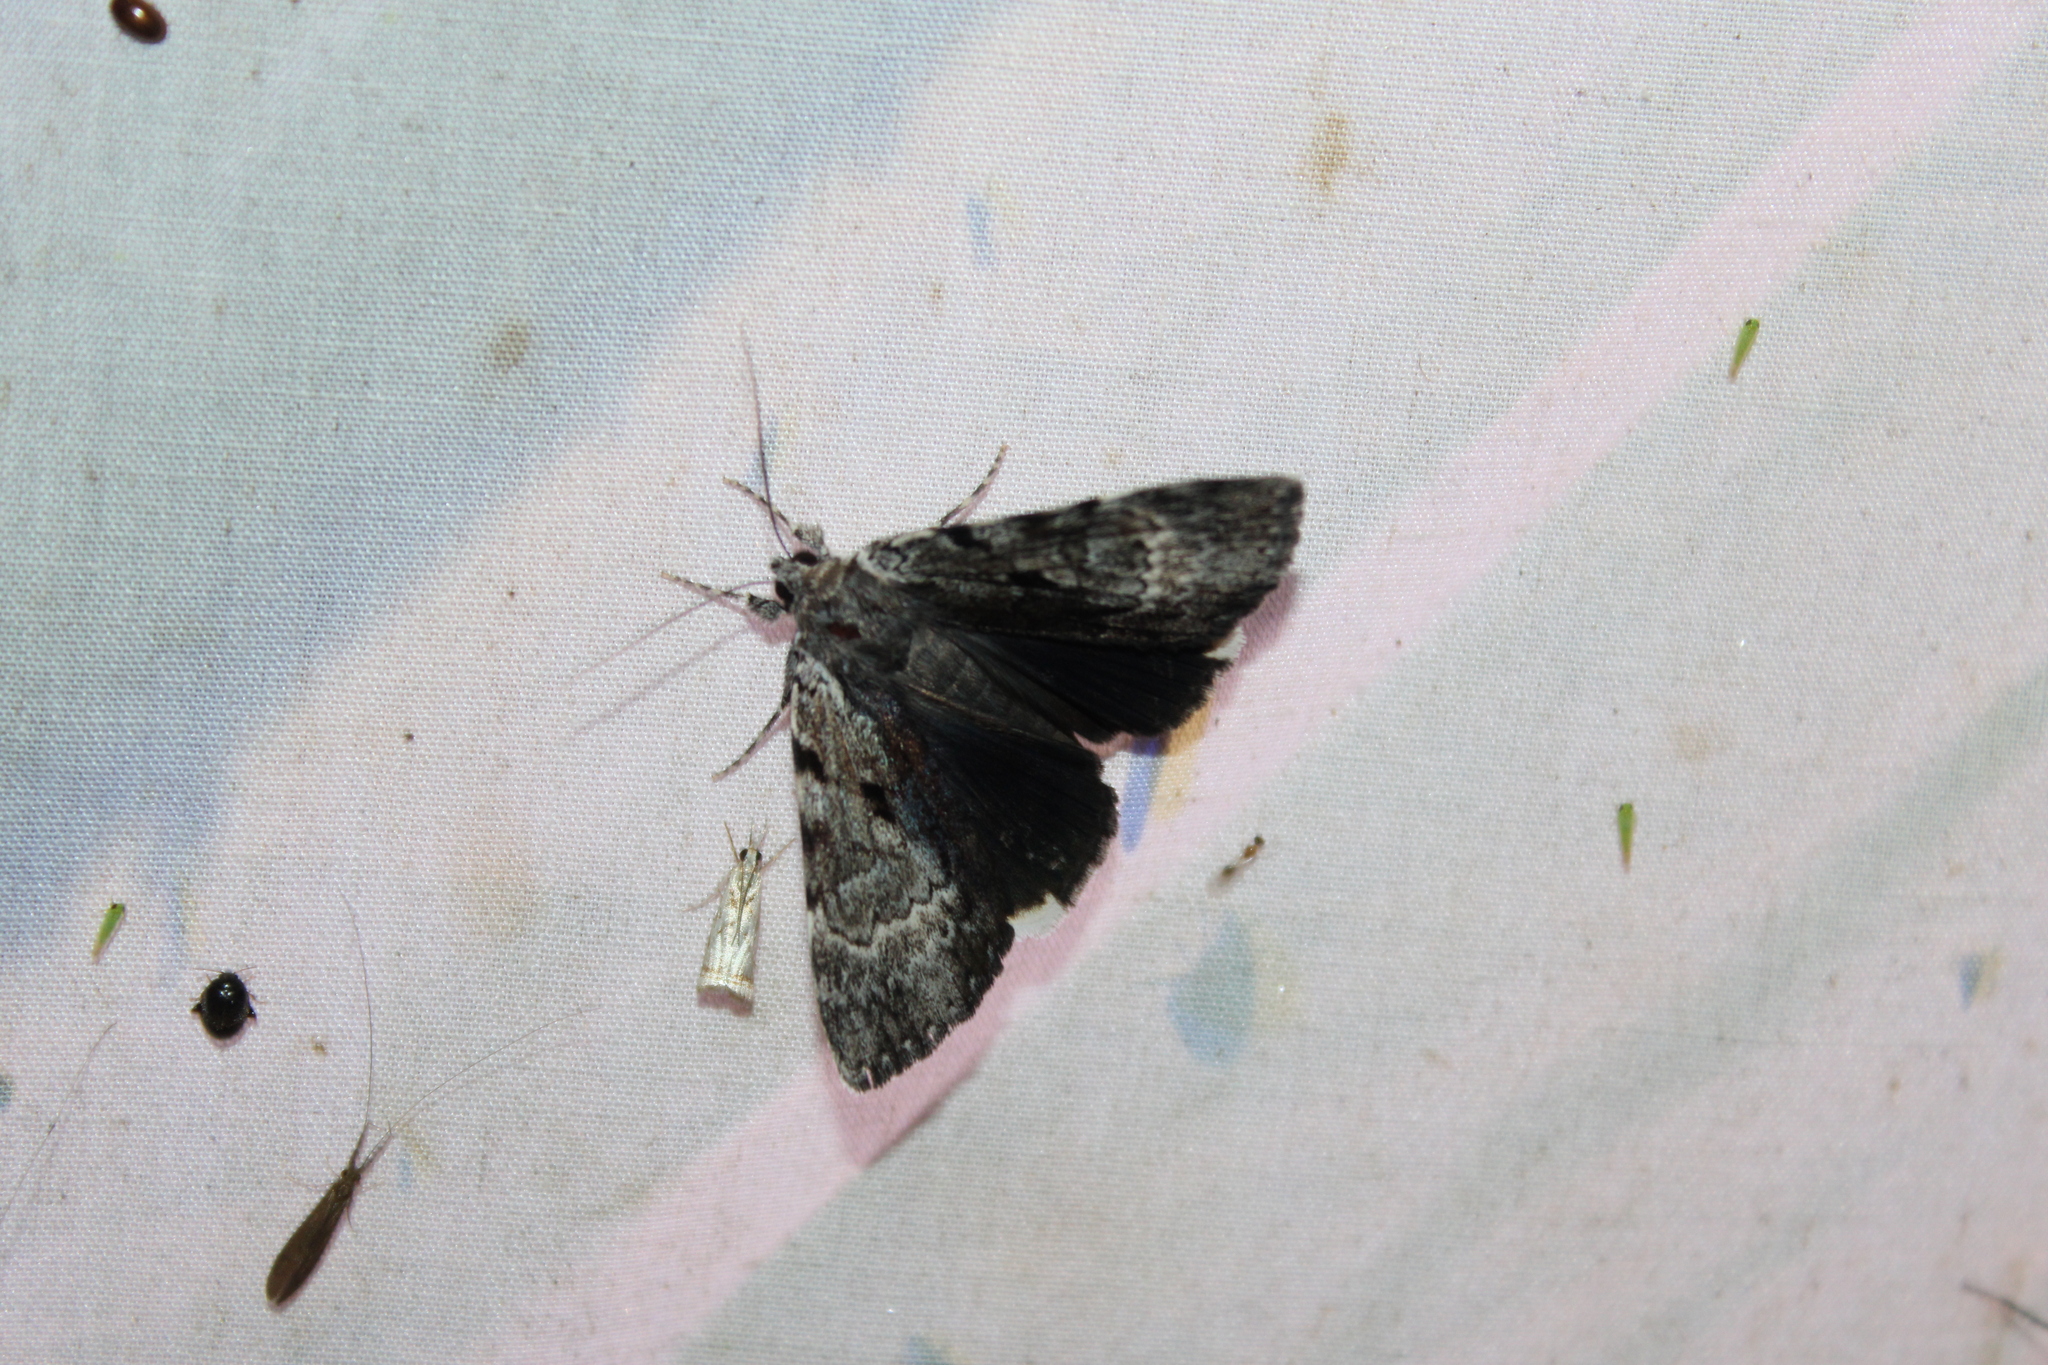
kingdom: Animalia
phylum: Arthropoda
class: Insecta
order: Lepidoptera
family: Erebidae
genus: Catocala
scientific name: Catocala andromedae
